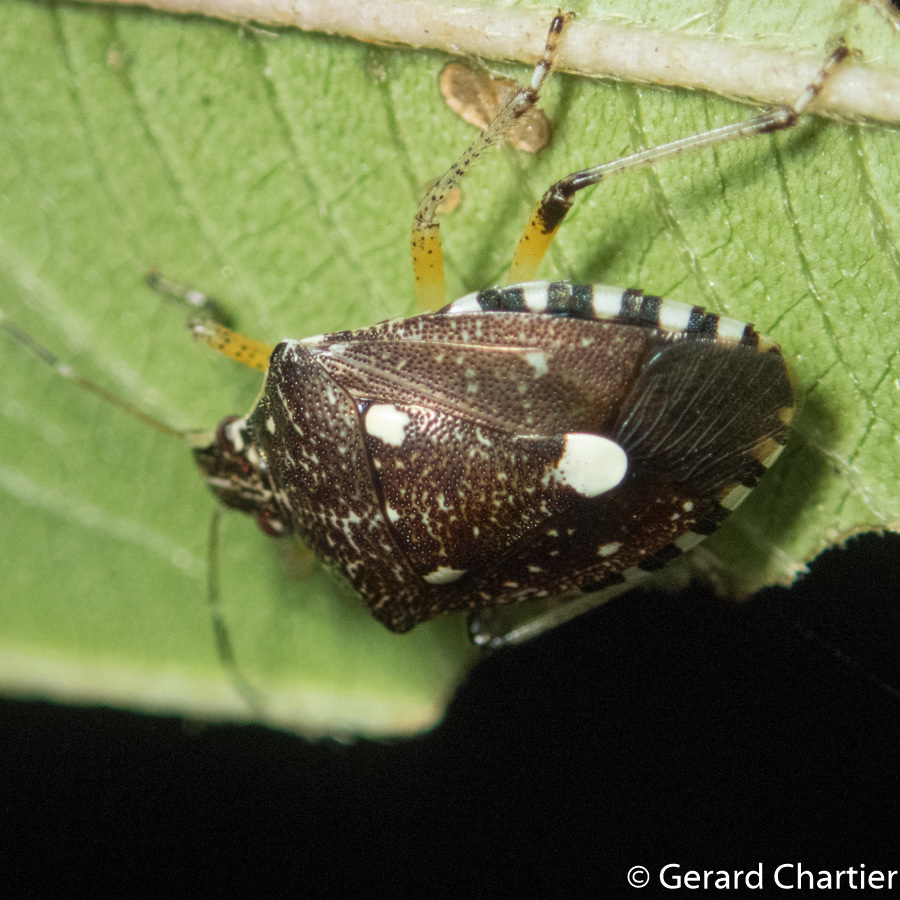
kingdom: Animalia
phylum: Arthropoda
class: Insecta
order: Hemiptera
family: Pentatomidae
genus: Tolumnia
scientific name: Tolumnia latipes
